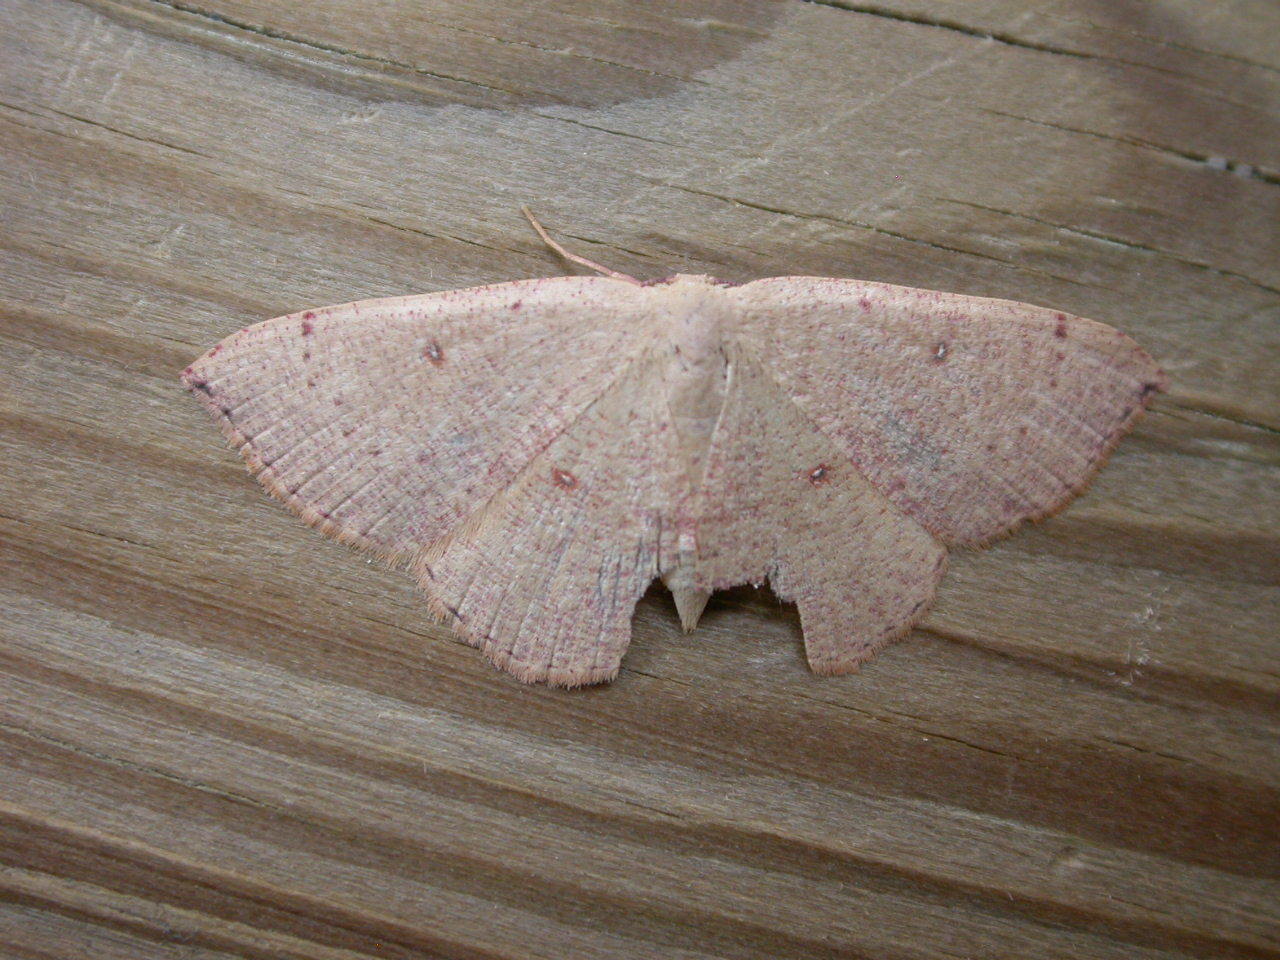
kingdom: Animalia
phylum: Arthropoda
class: Insecta
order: Lepidoptera
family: Geometridae
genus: Cyclophora
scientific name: Cyclophora puppillaria
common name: Blair's mocha
